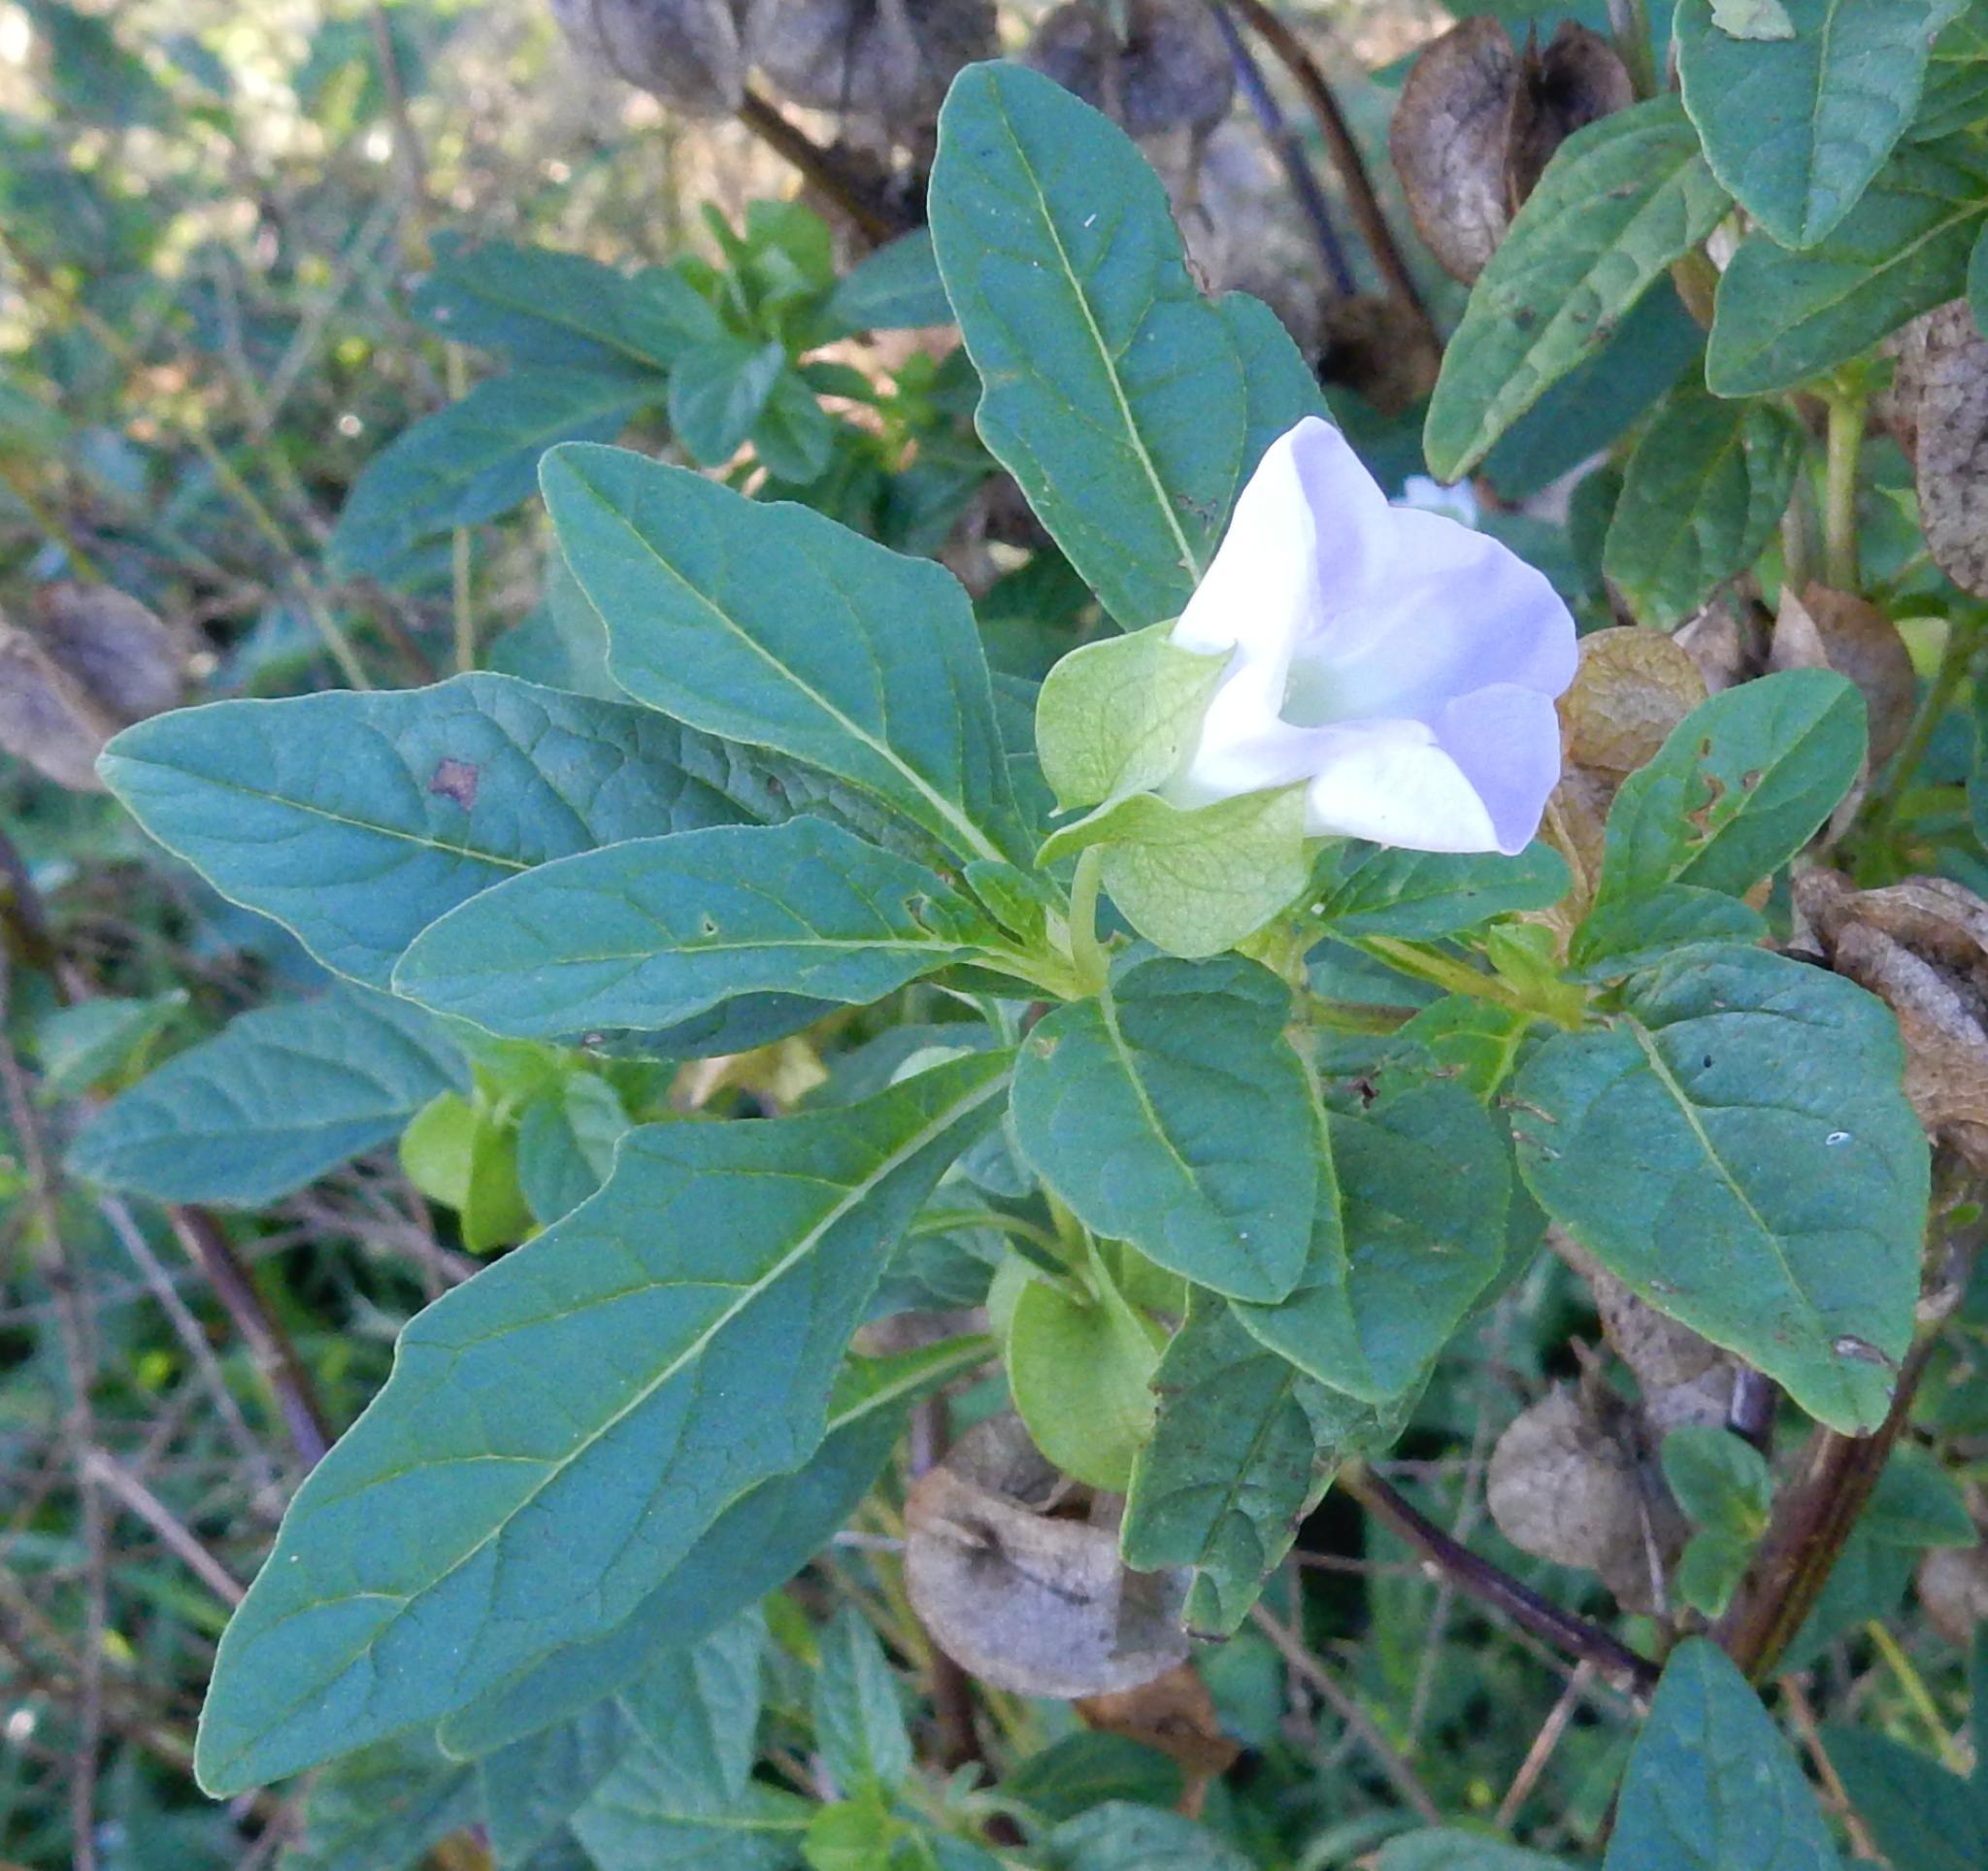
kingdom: Plantae
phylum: Tracheophyta
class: Magnoliopsida
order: Solanales
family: Solanaceae
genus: Nicandra
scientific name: Nicandra physalodes
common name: Apple-of-peru
